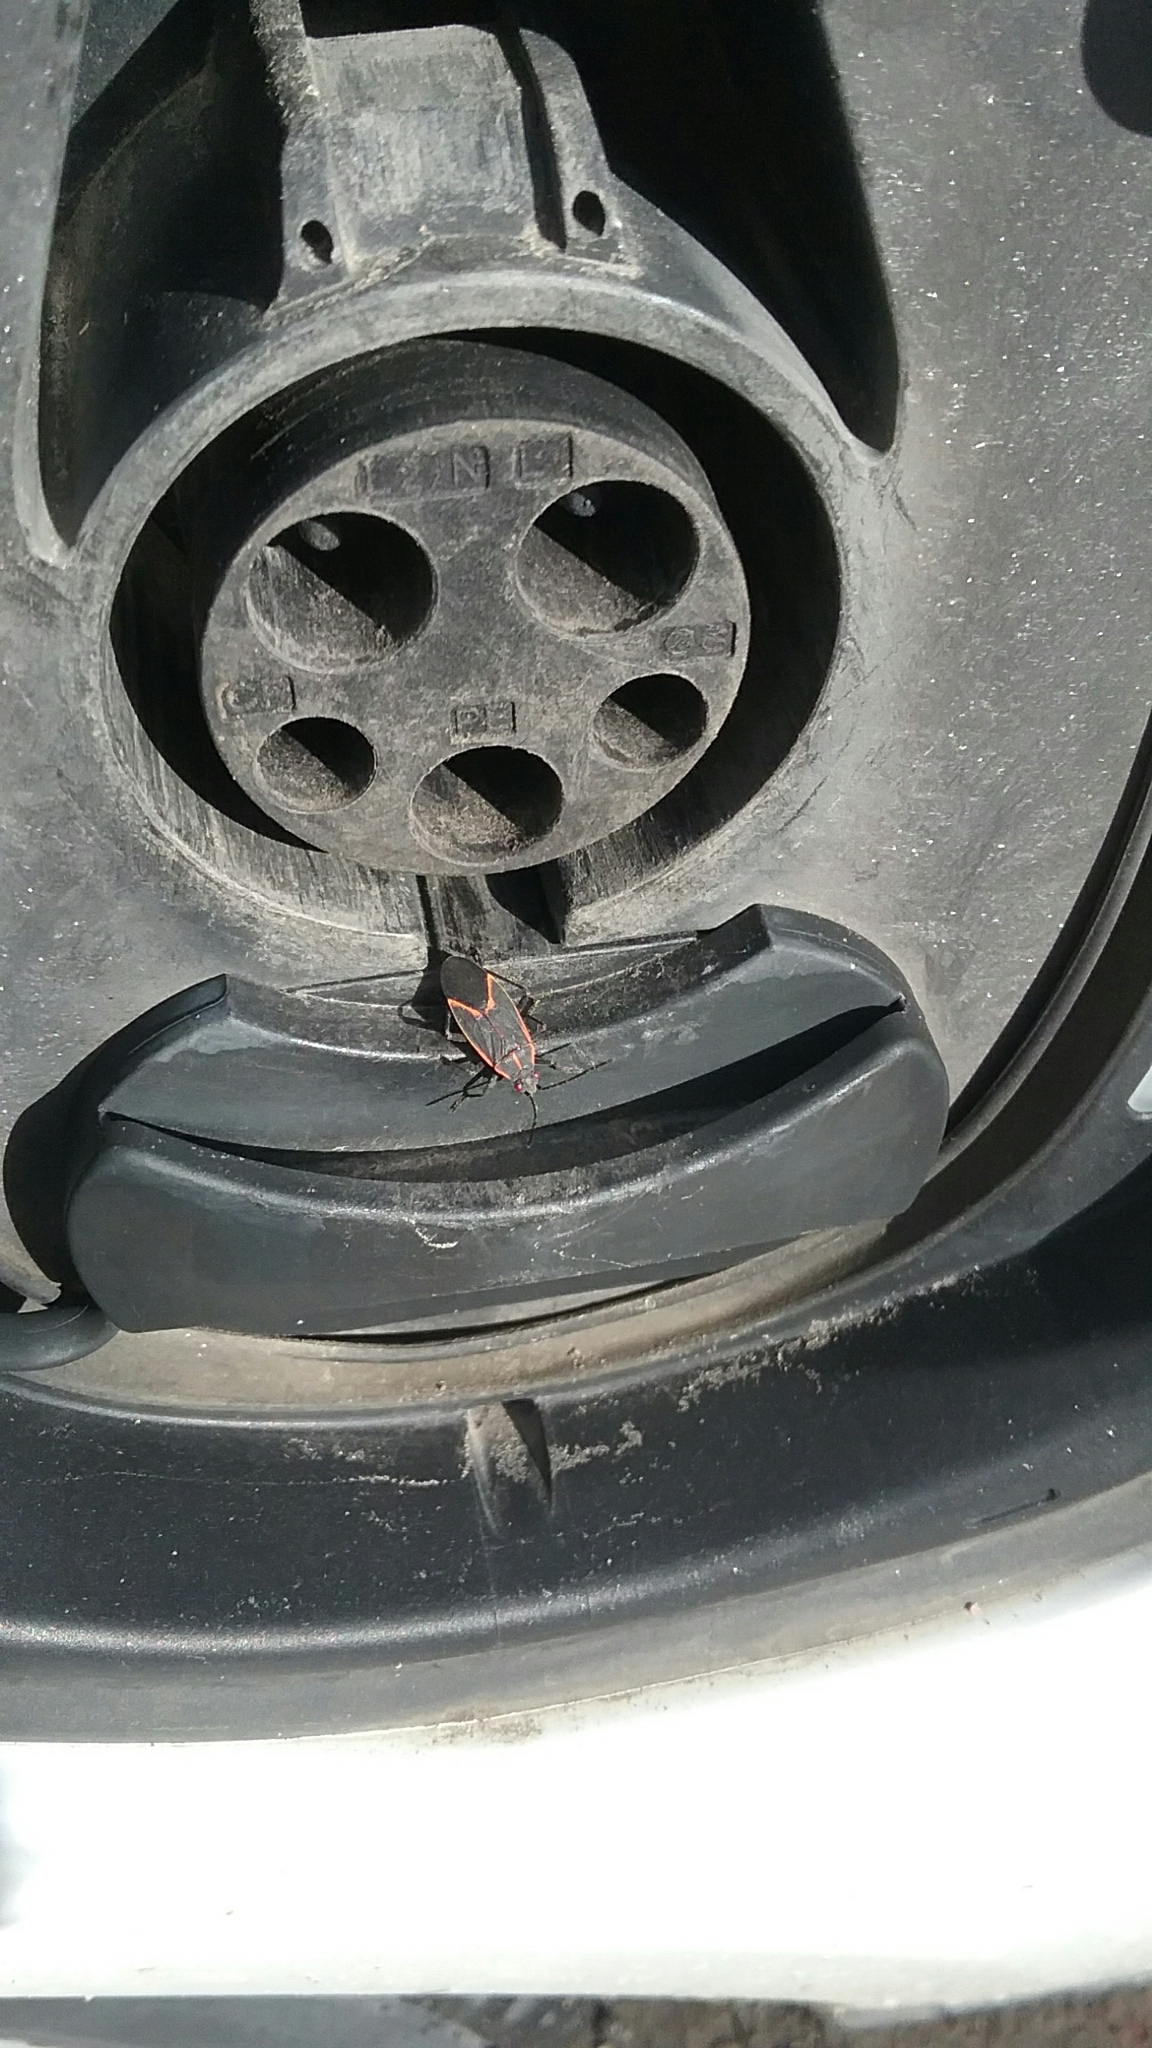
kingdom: Animalia
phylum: Arthropoda
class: Insecta
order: Hemiptera
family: Rhopalidae
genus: Boisea
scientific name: Boisea trivittata
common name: Boxelder bug
